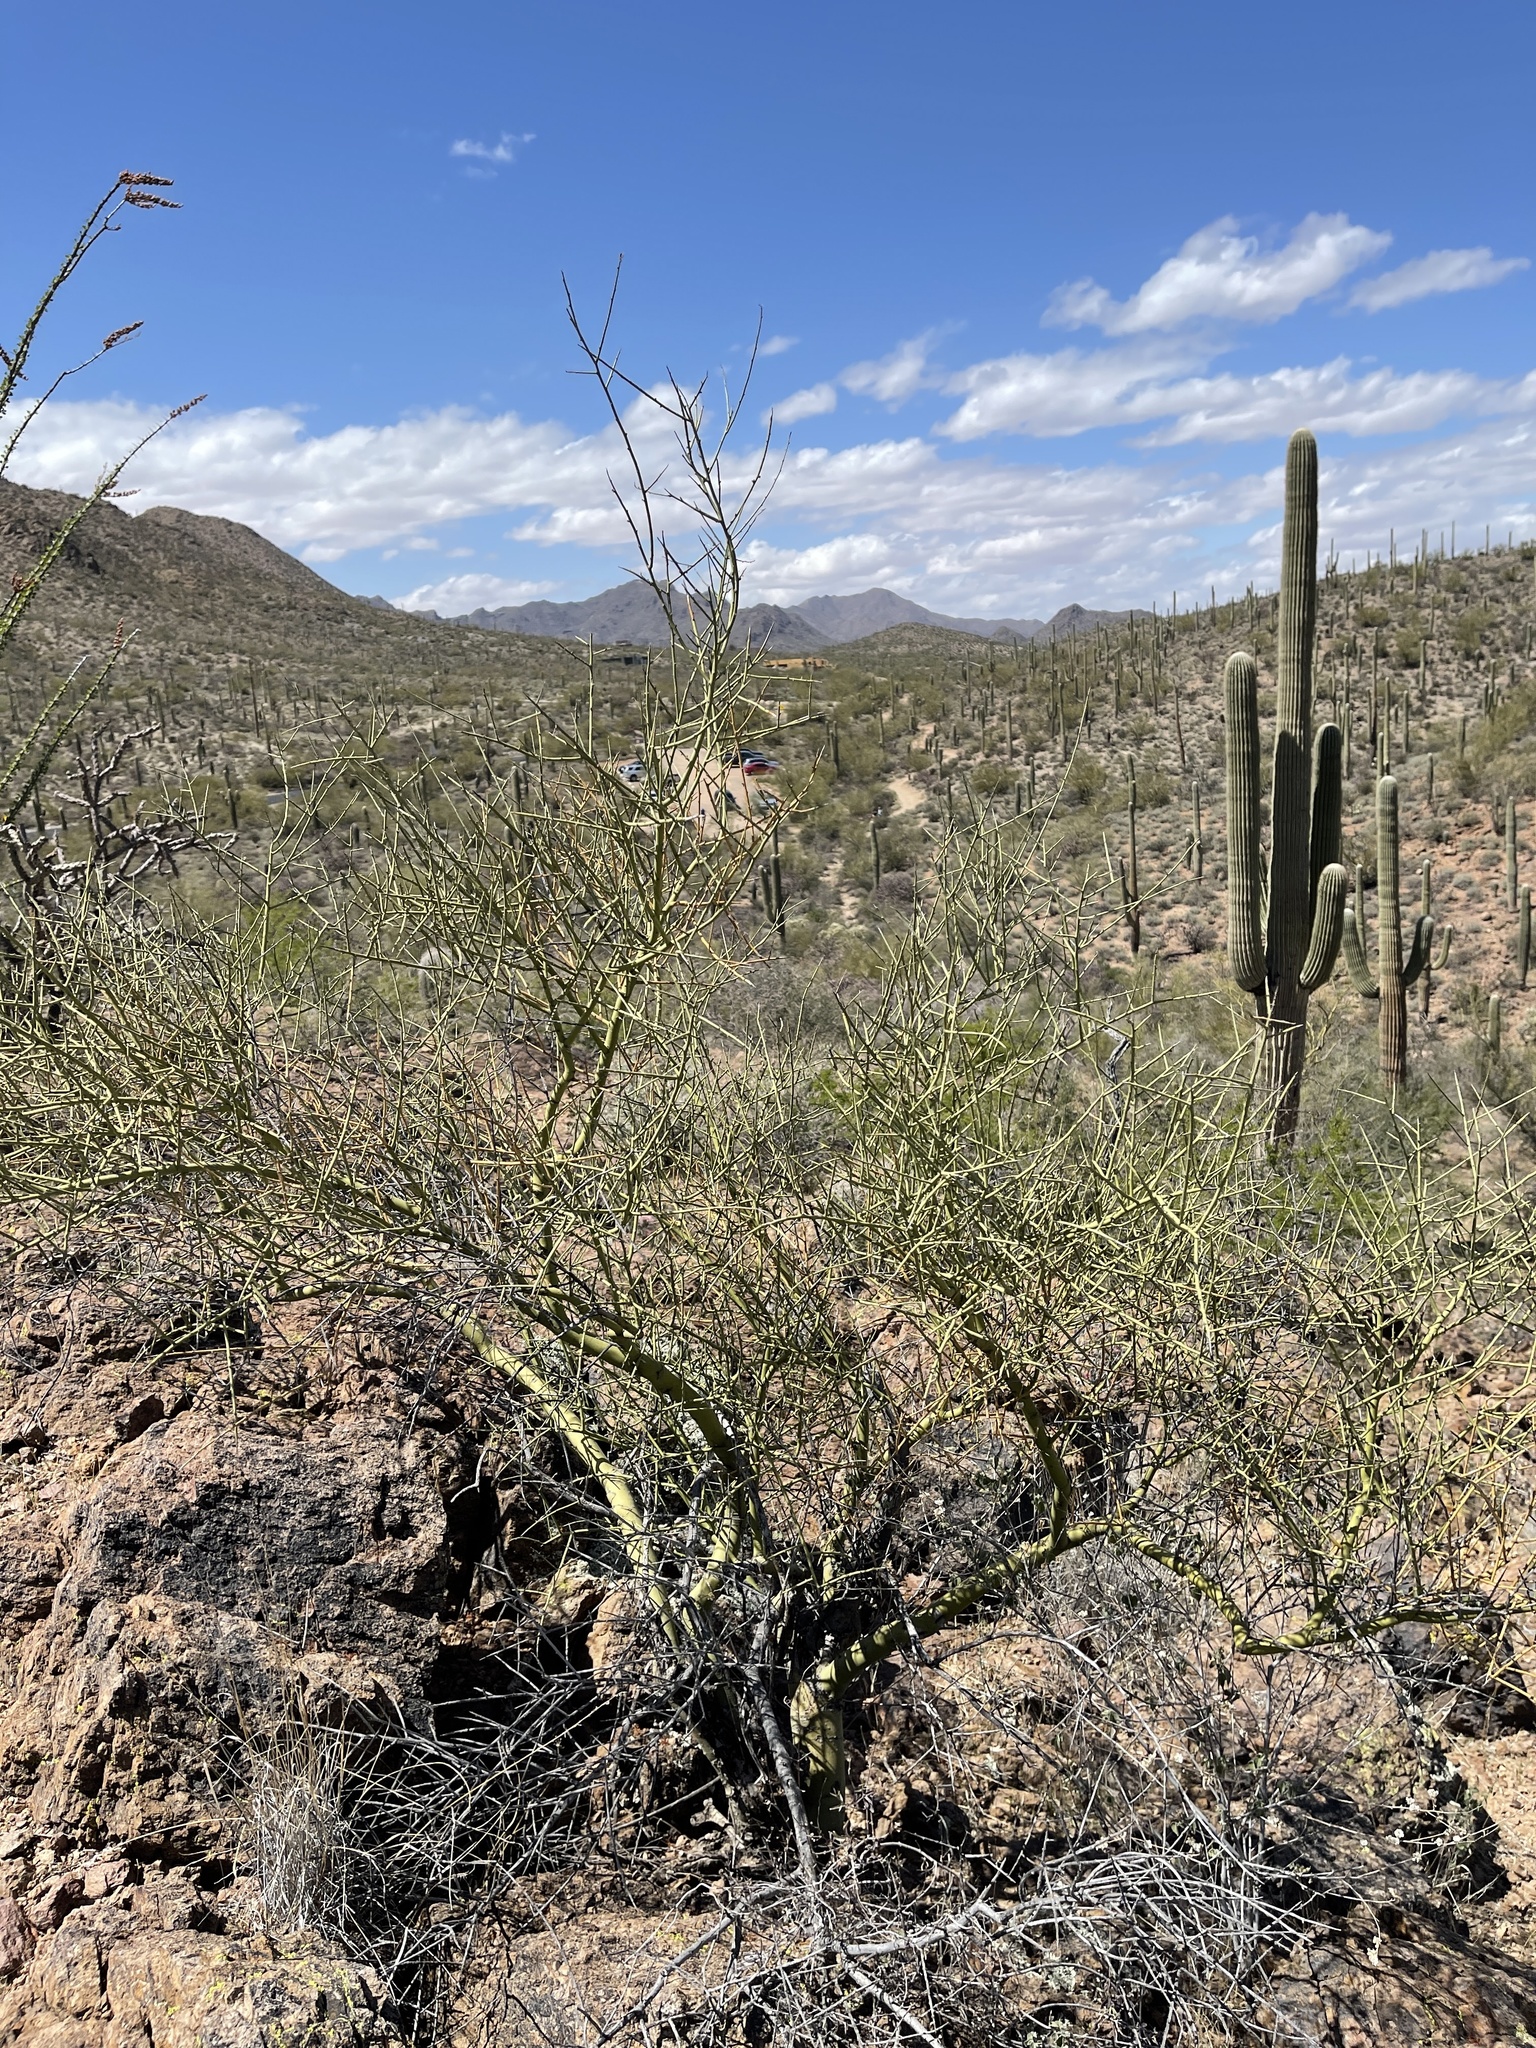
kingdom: Plantae
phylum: Tracheophyta
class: Magnoliopsida
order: Fabales
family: Fabaceae
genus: Parkinsonia
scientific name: Parkinsonia microphylla
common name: Yellow paloverde
